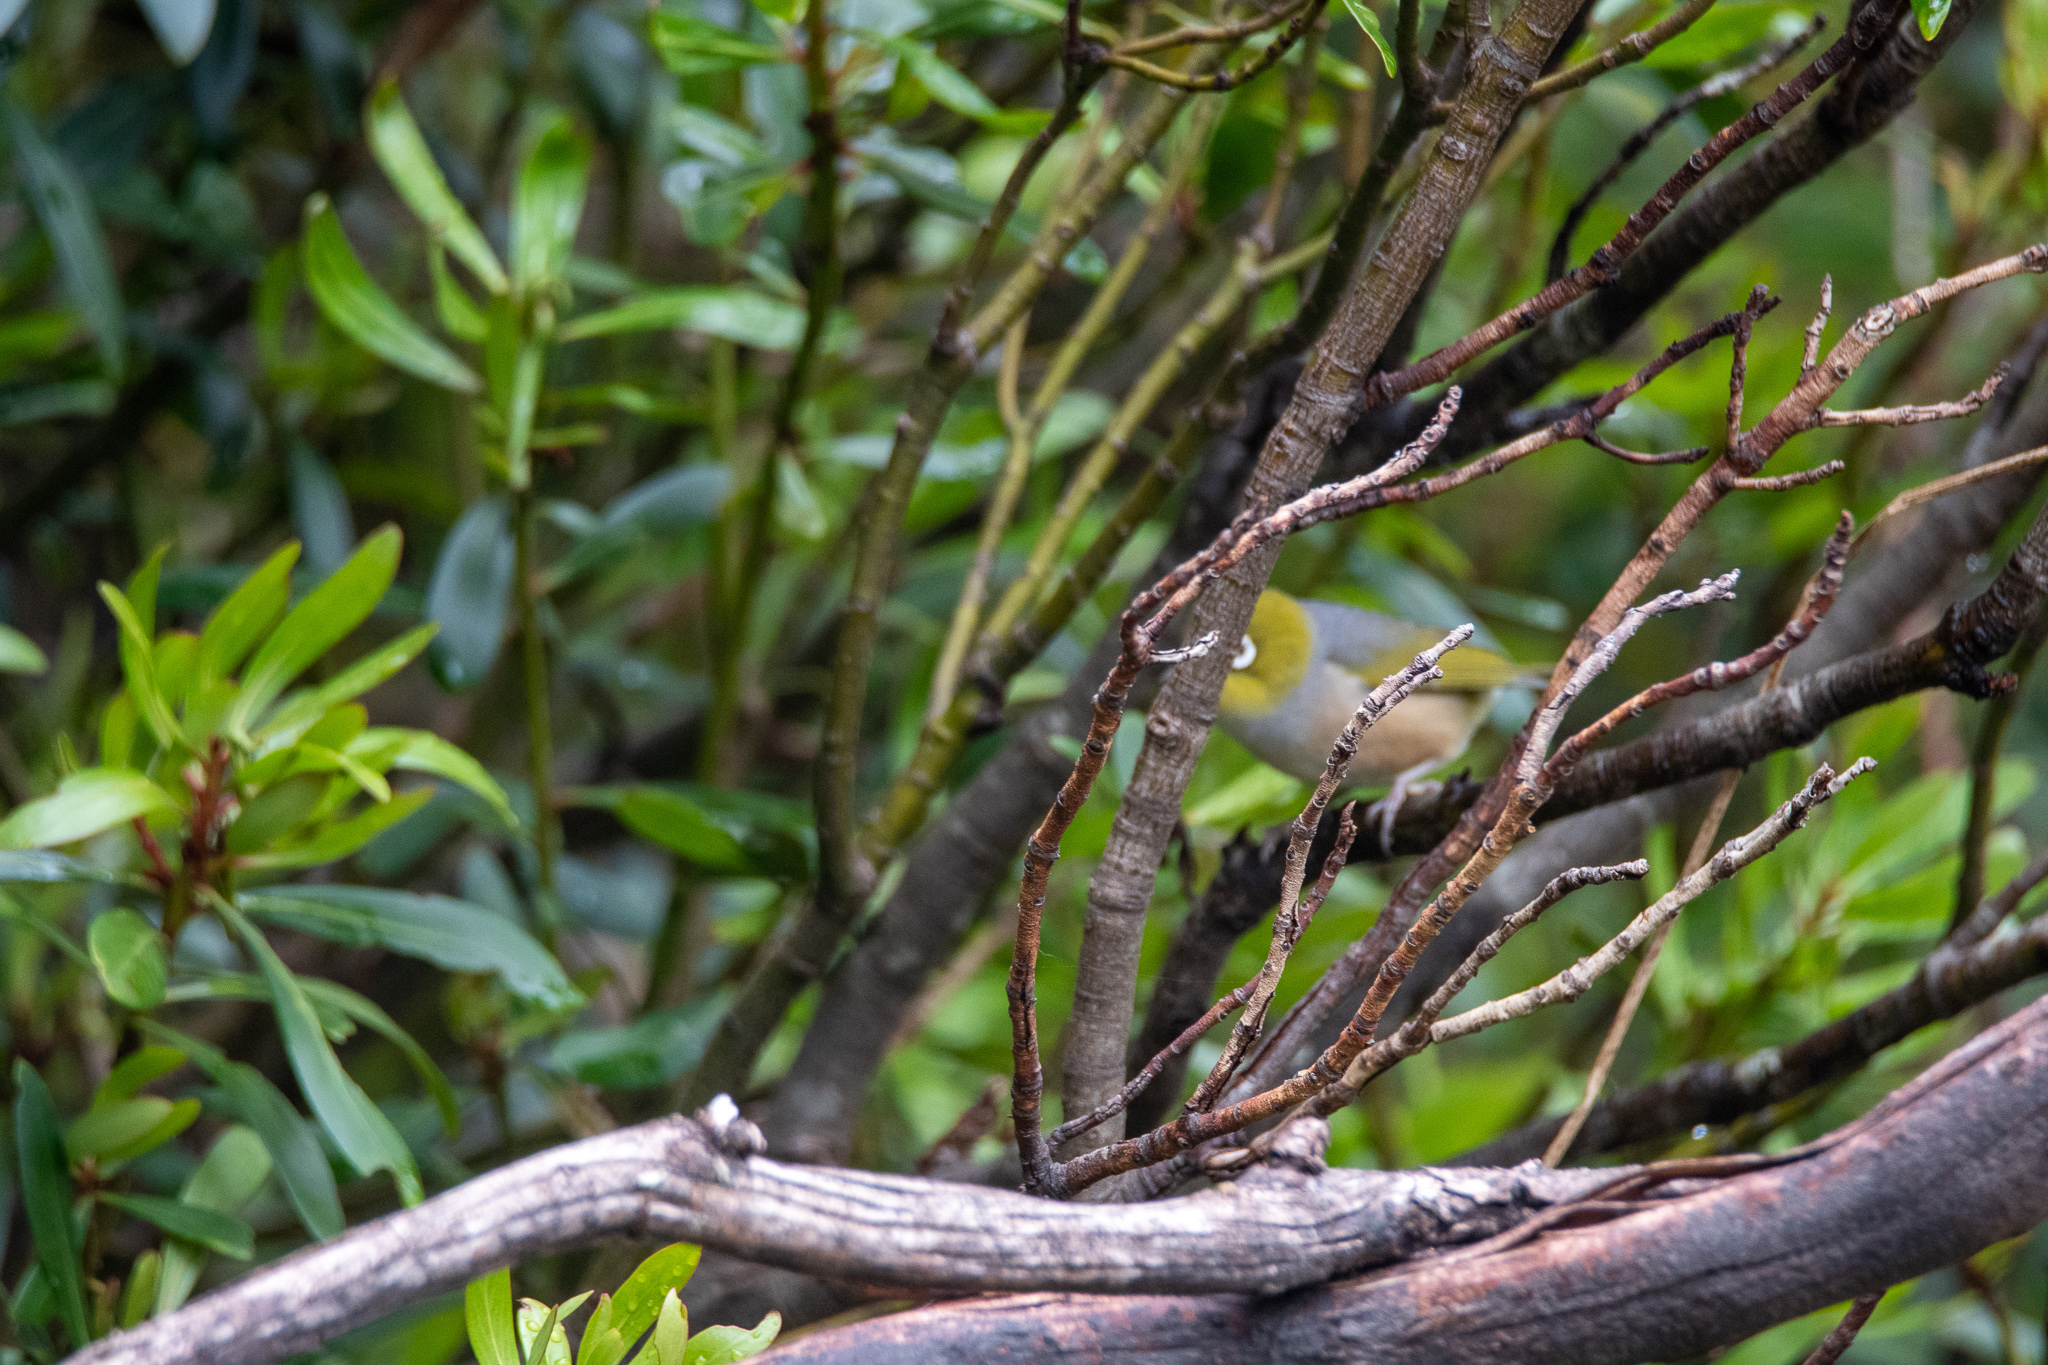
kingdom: Animalia
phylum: Chordata
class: Aves
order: Passeriformes
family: Zosteropidae
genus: Zosterops
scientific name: Zosterops lateralis
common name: Silvereye
